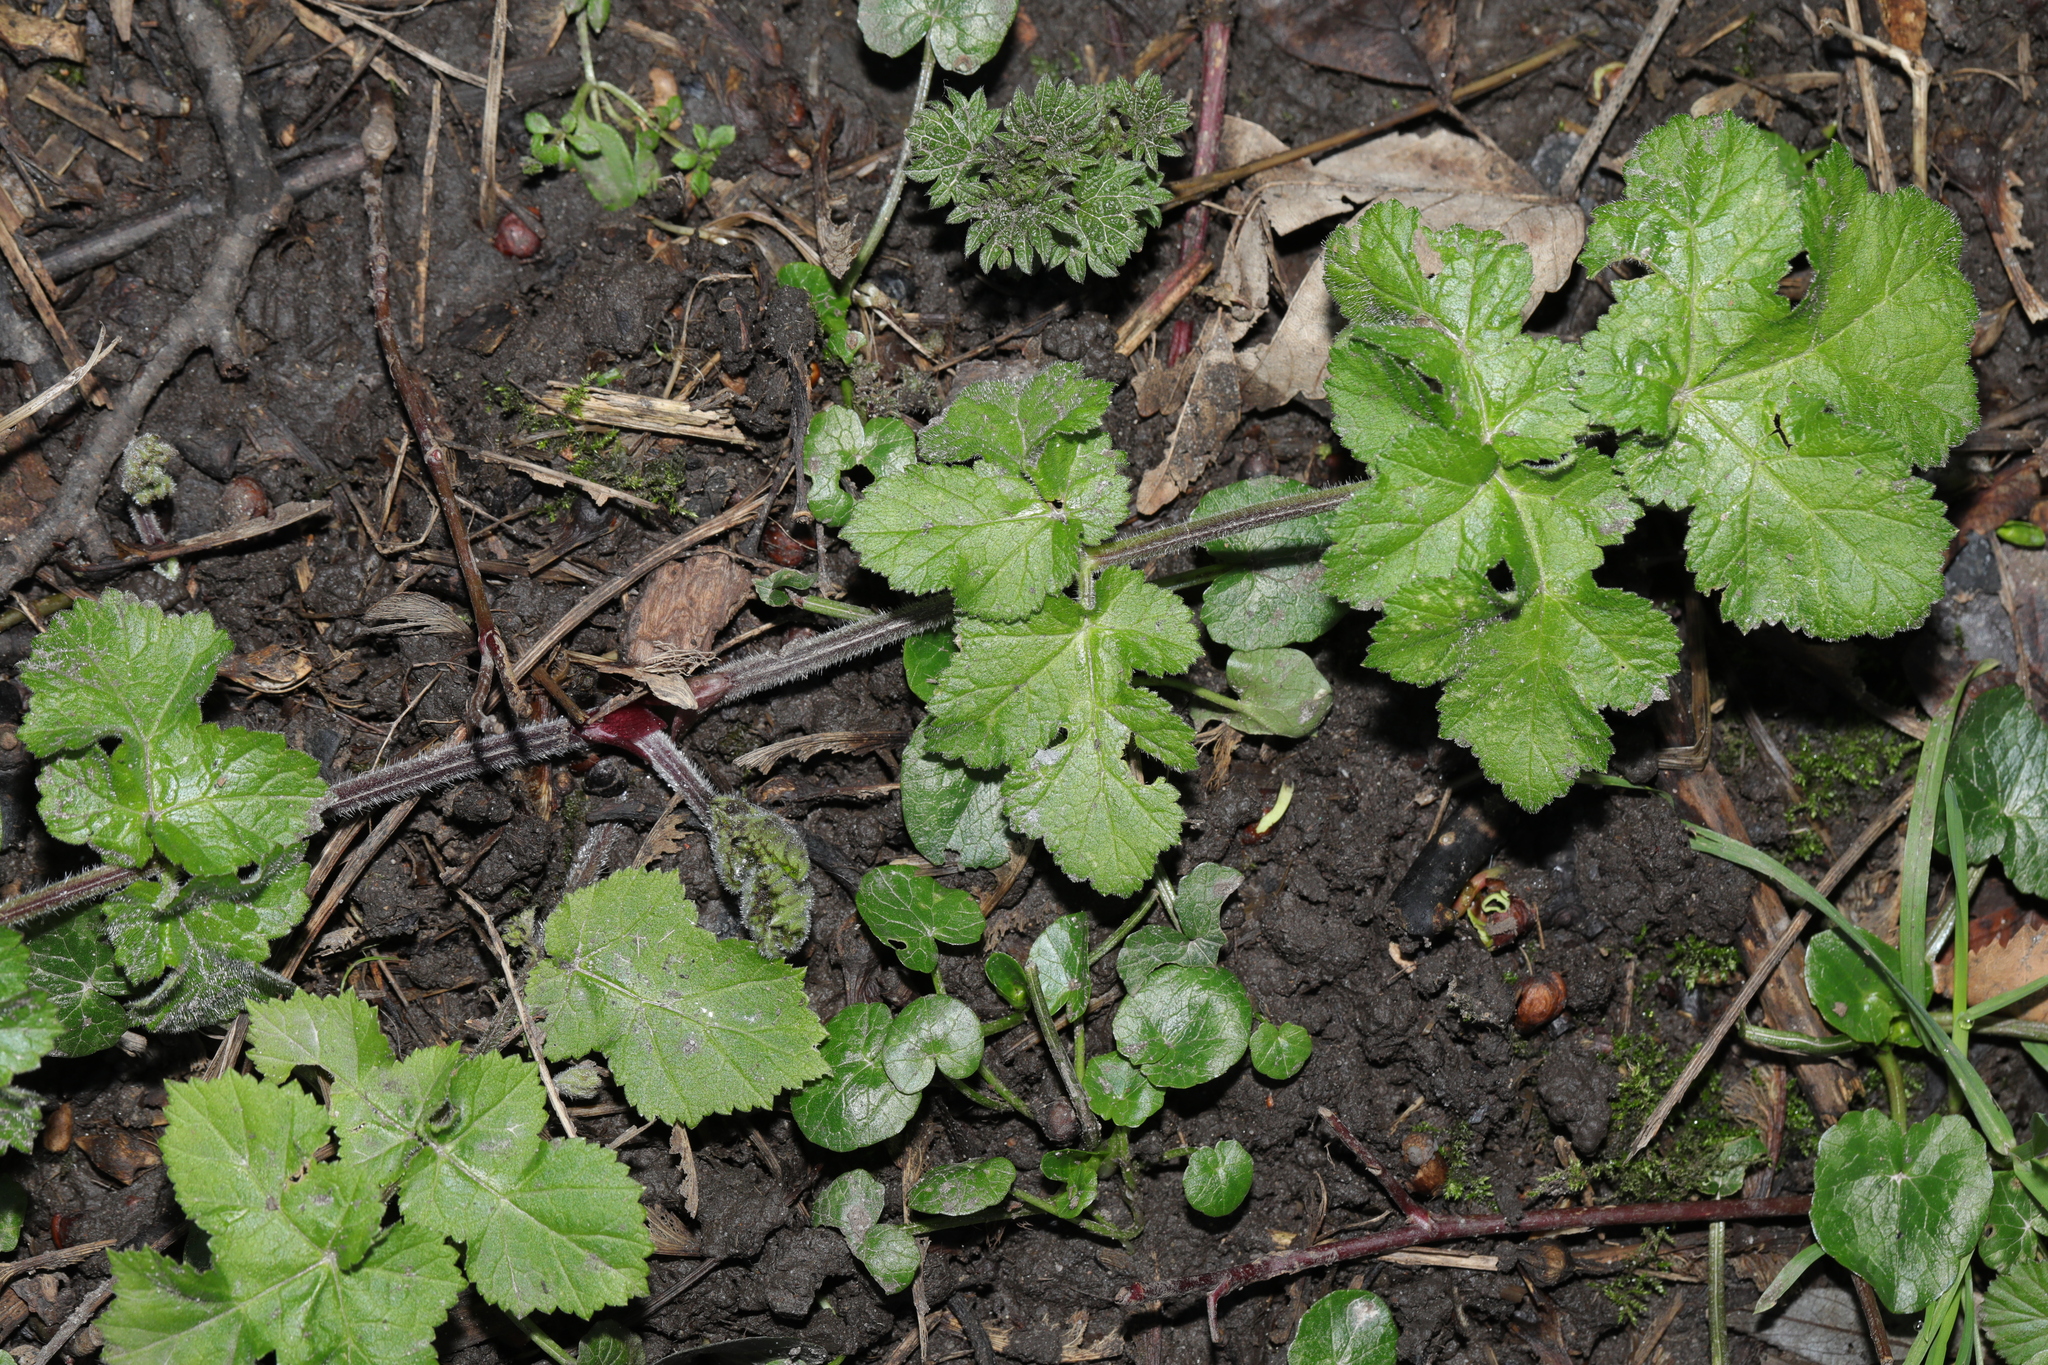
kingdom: Plantae
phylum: Tracheophyta
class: Magnoliopsida
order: Apiales
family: Apiaceae
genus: Heracleum
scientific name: Heracleum sphondylium
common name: Hogweed
